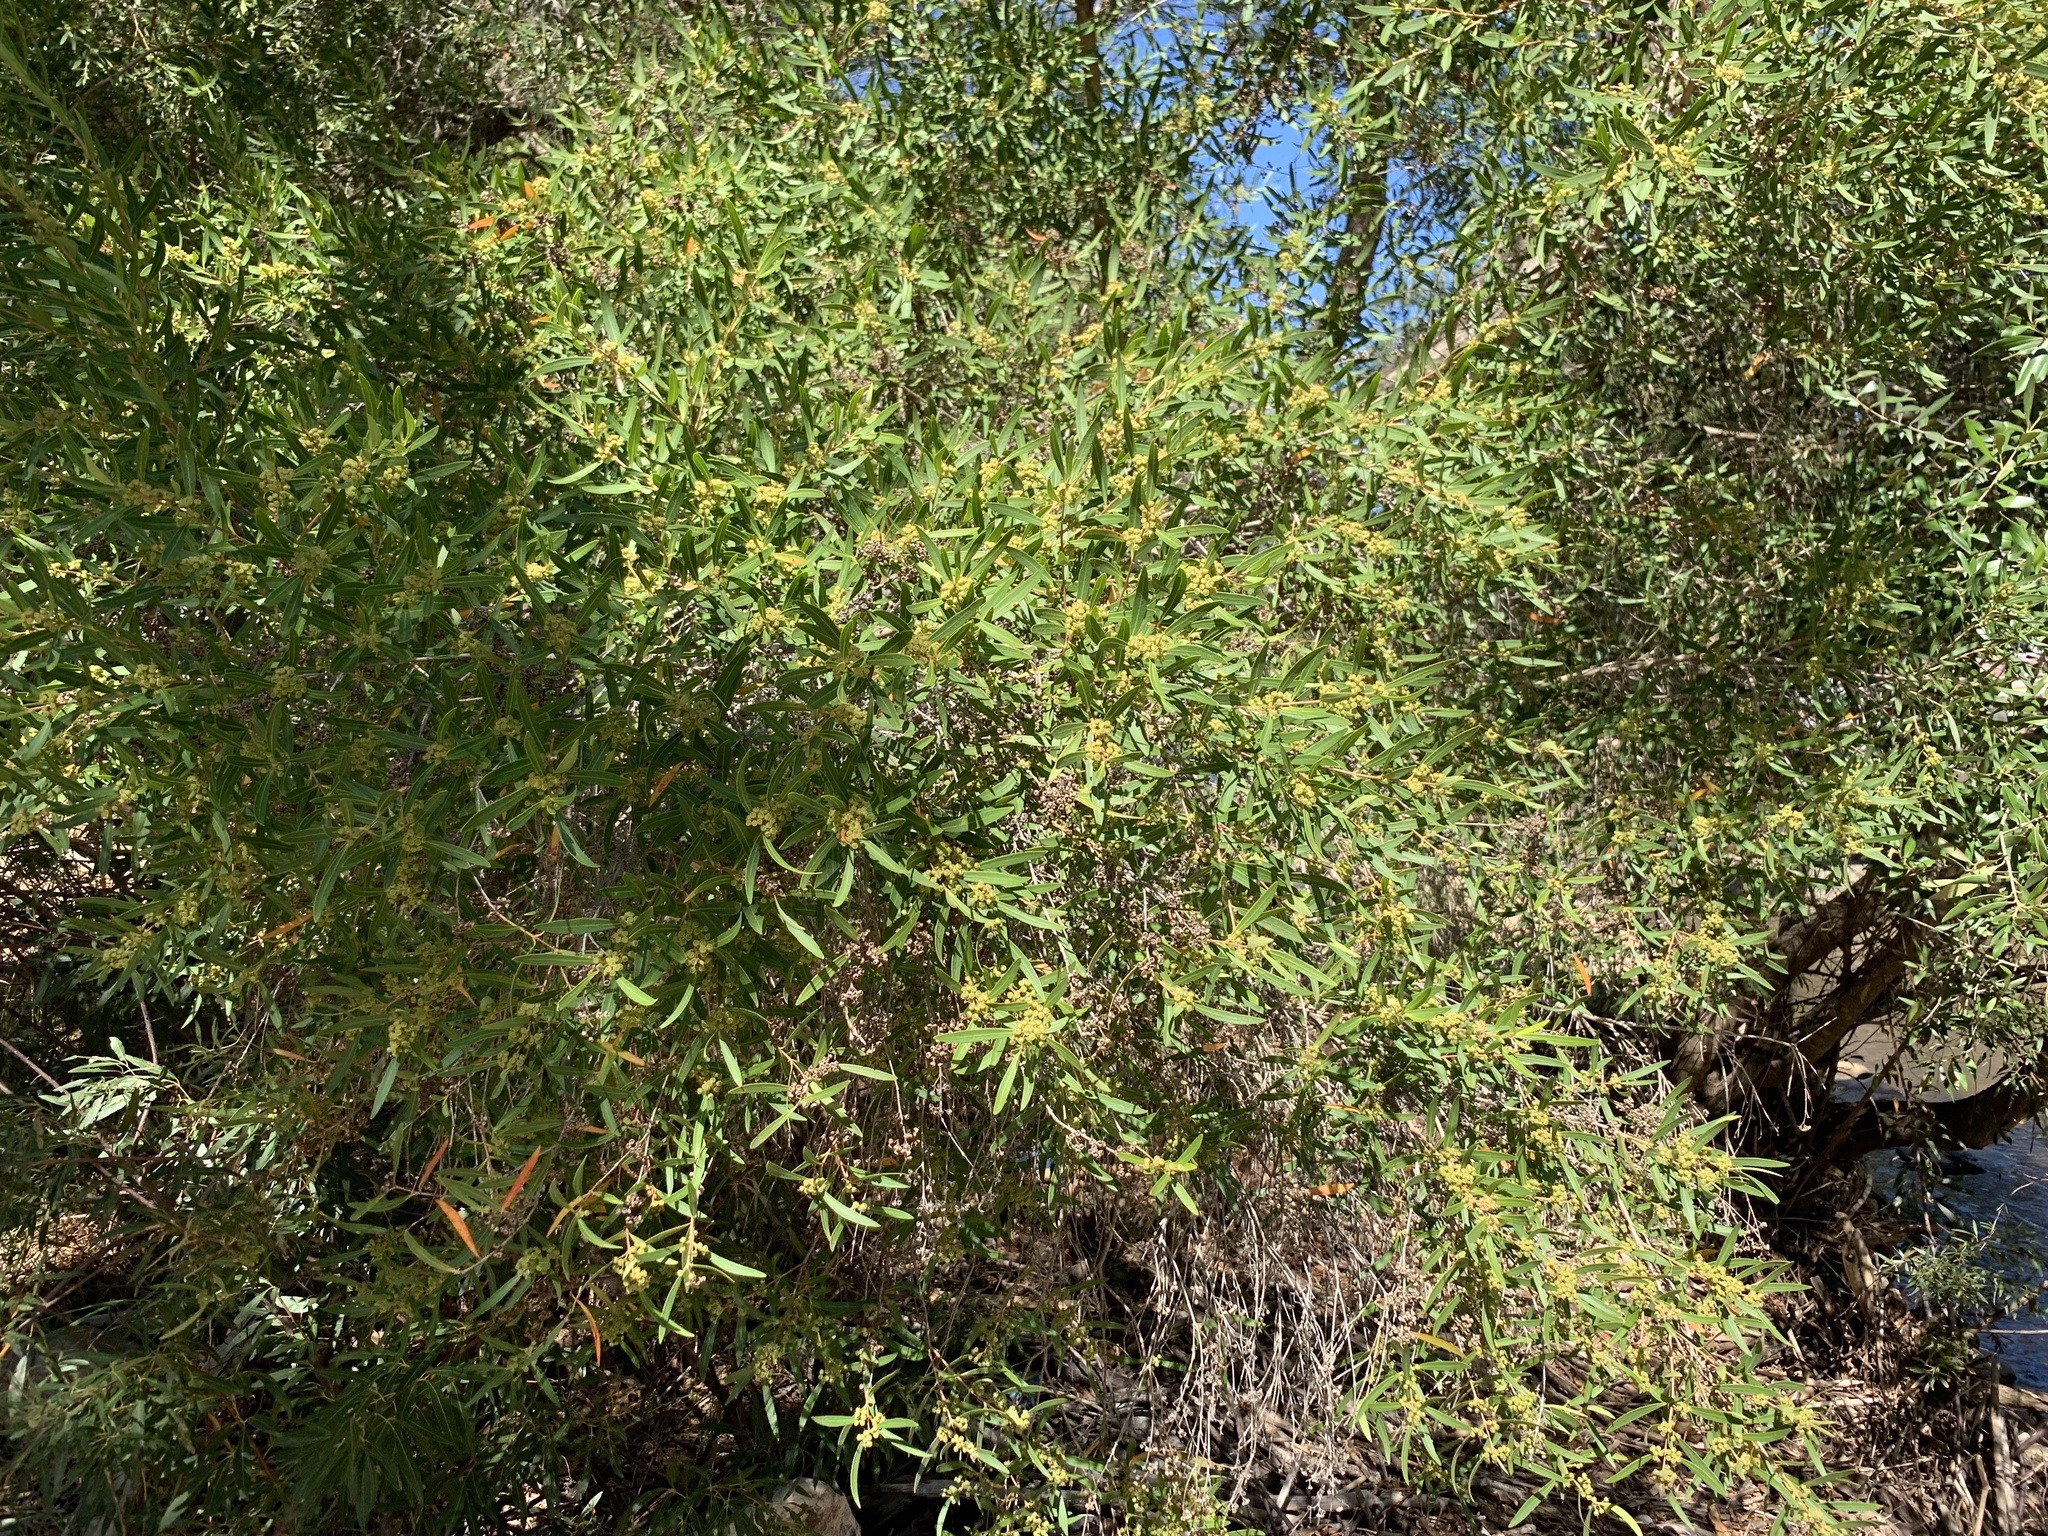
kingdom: Plantae
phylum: Tracheophyta
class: Magnoliopsida
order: Myrtales
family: Myrtaceae
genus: Callistemon
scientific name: Callistemon lanceolatus
